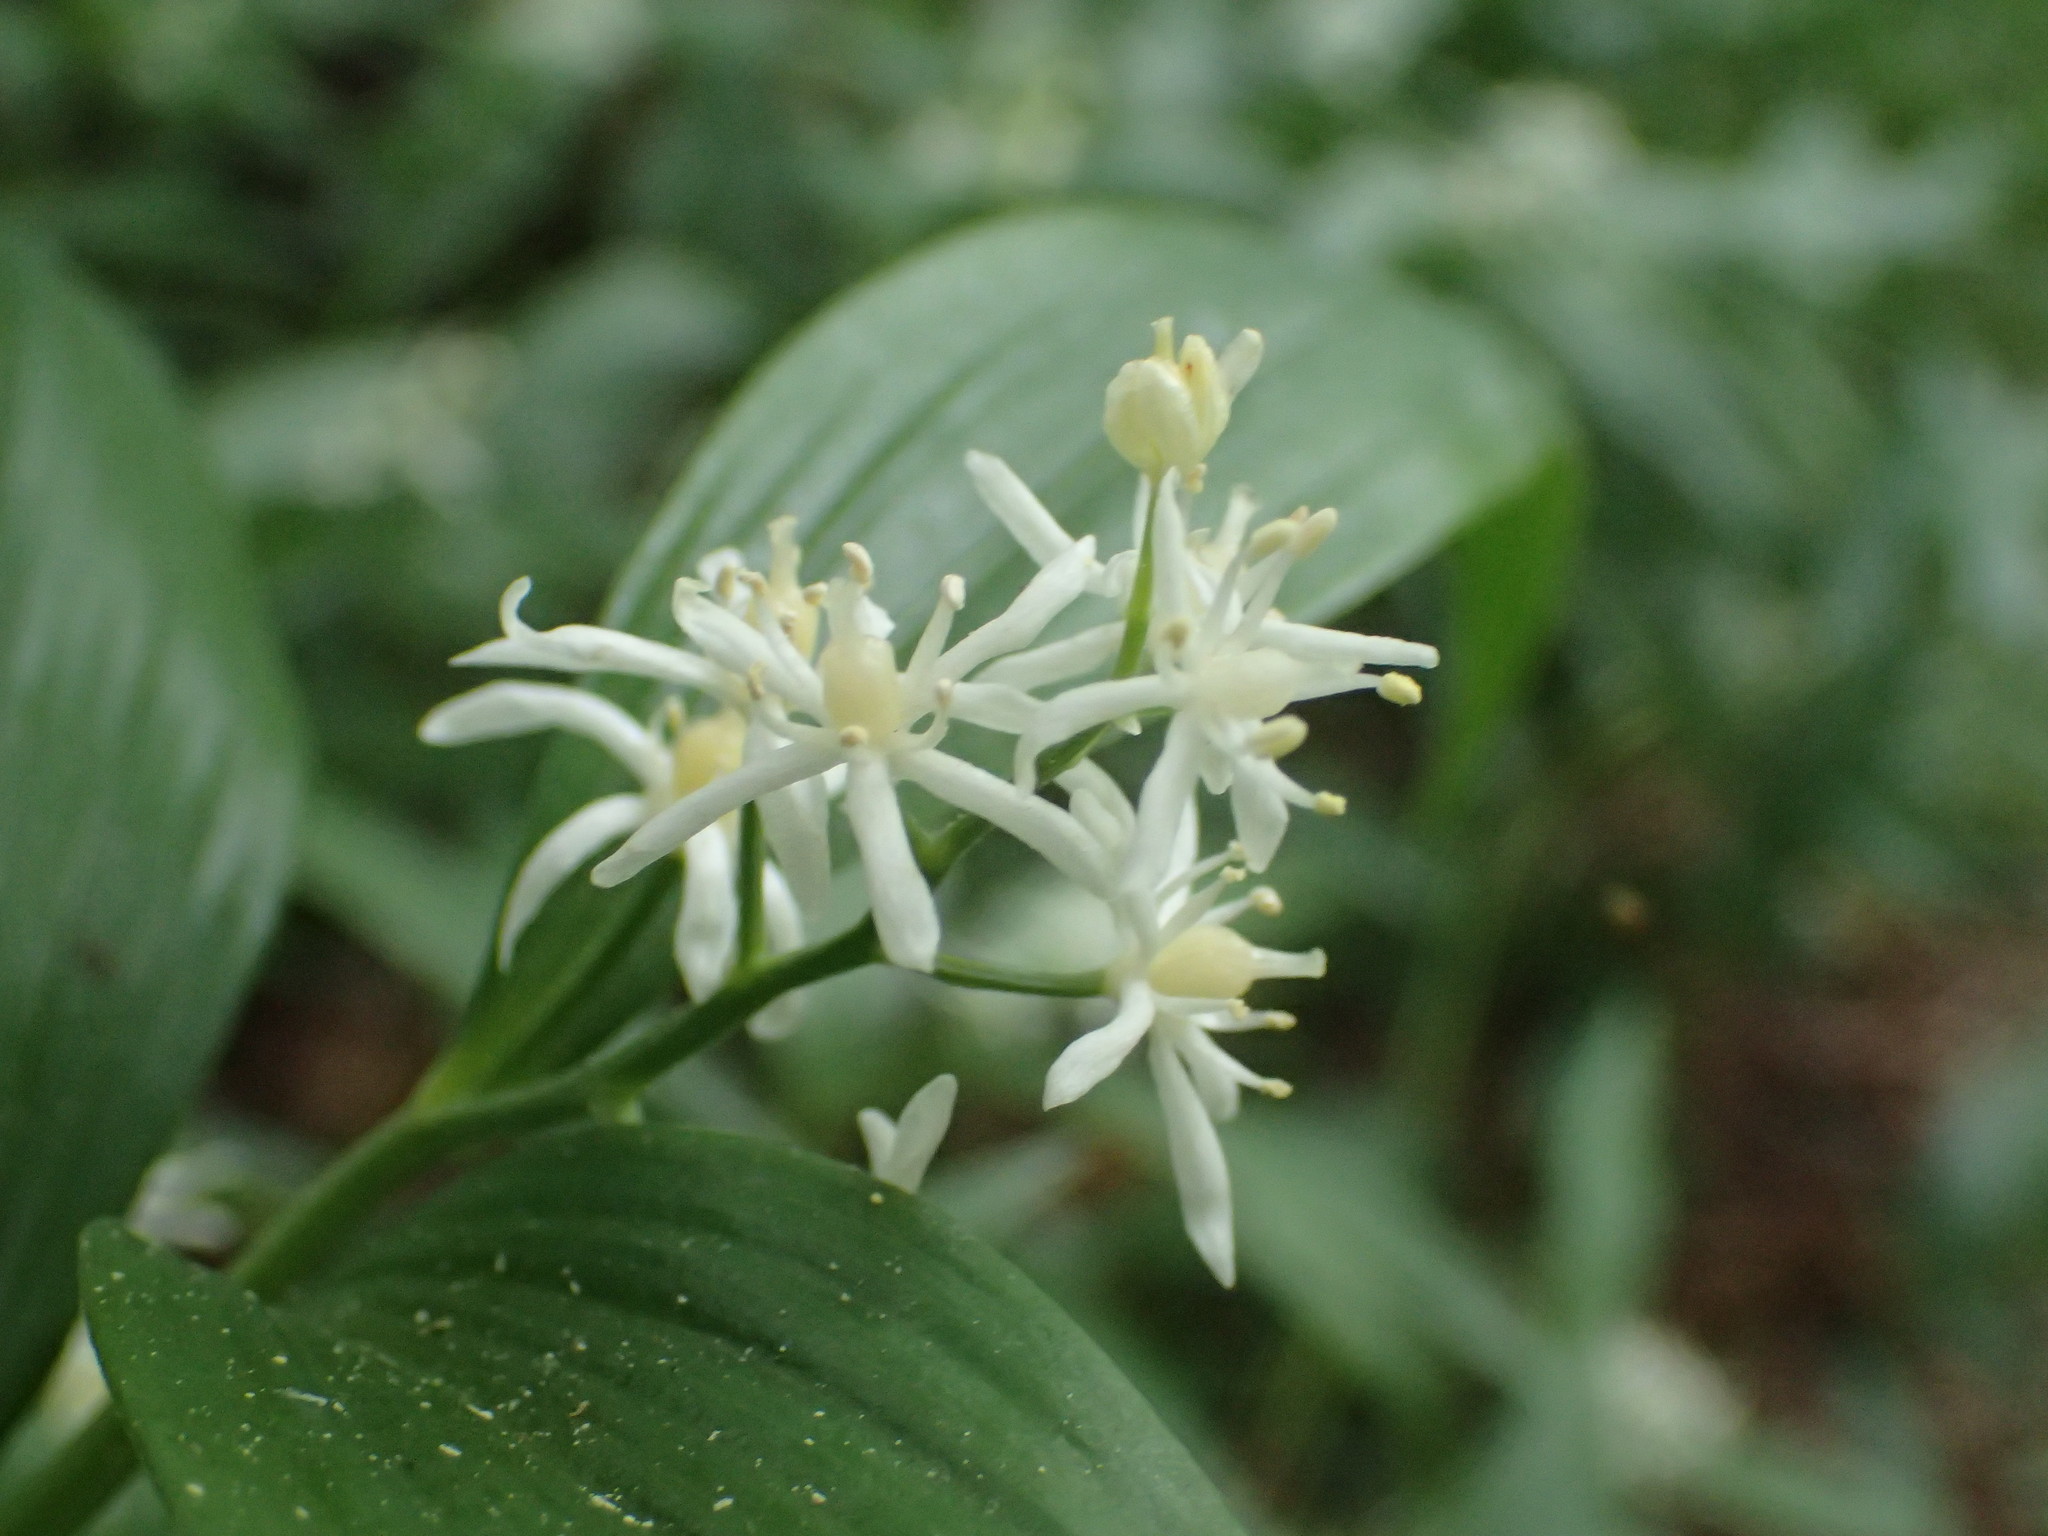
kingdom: Plantae
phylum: Tracheophyta
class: Liliopsida
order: Asparagales
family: Asparagaceae
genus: Maianthemum
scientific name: Maianthemum stellatum
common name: Little false solomon's seal
